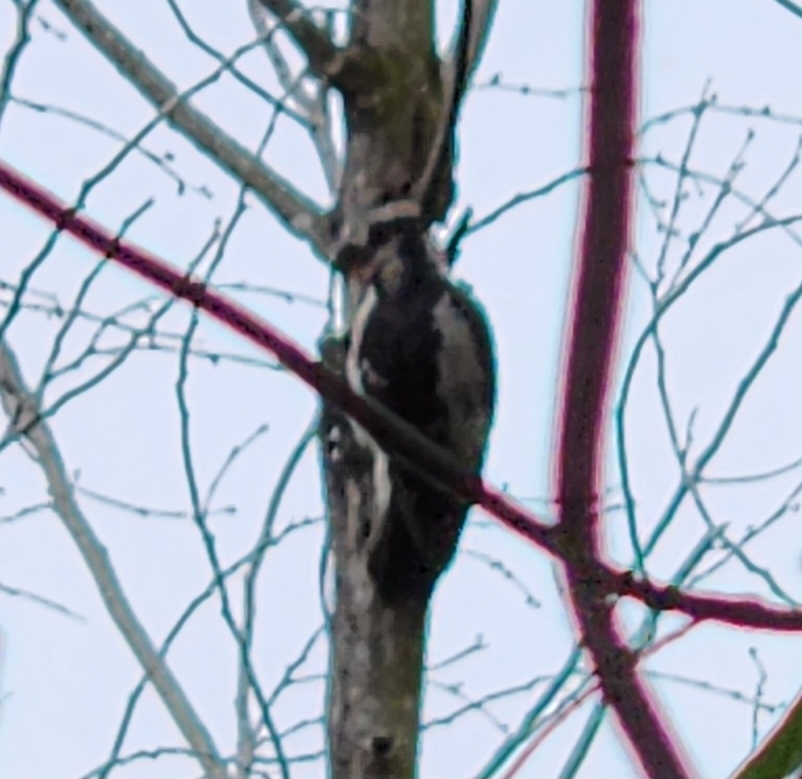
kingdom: Animalia
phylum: Chordata
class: Aves
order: Piciformes
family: Picidae
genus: Dryobates
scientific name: Dryobates pubescens
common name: Downy woodpecker
